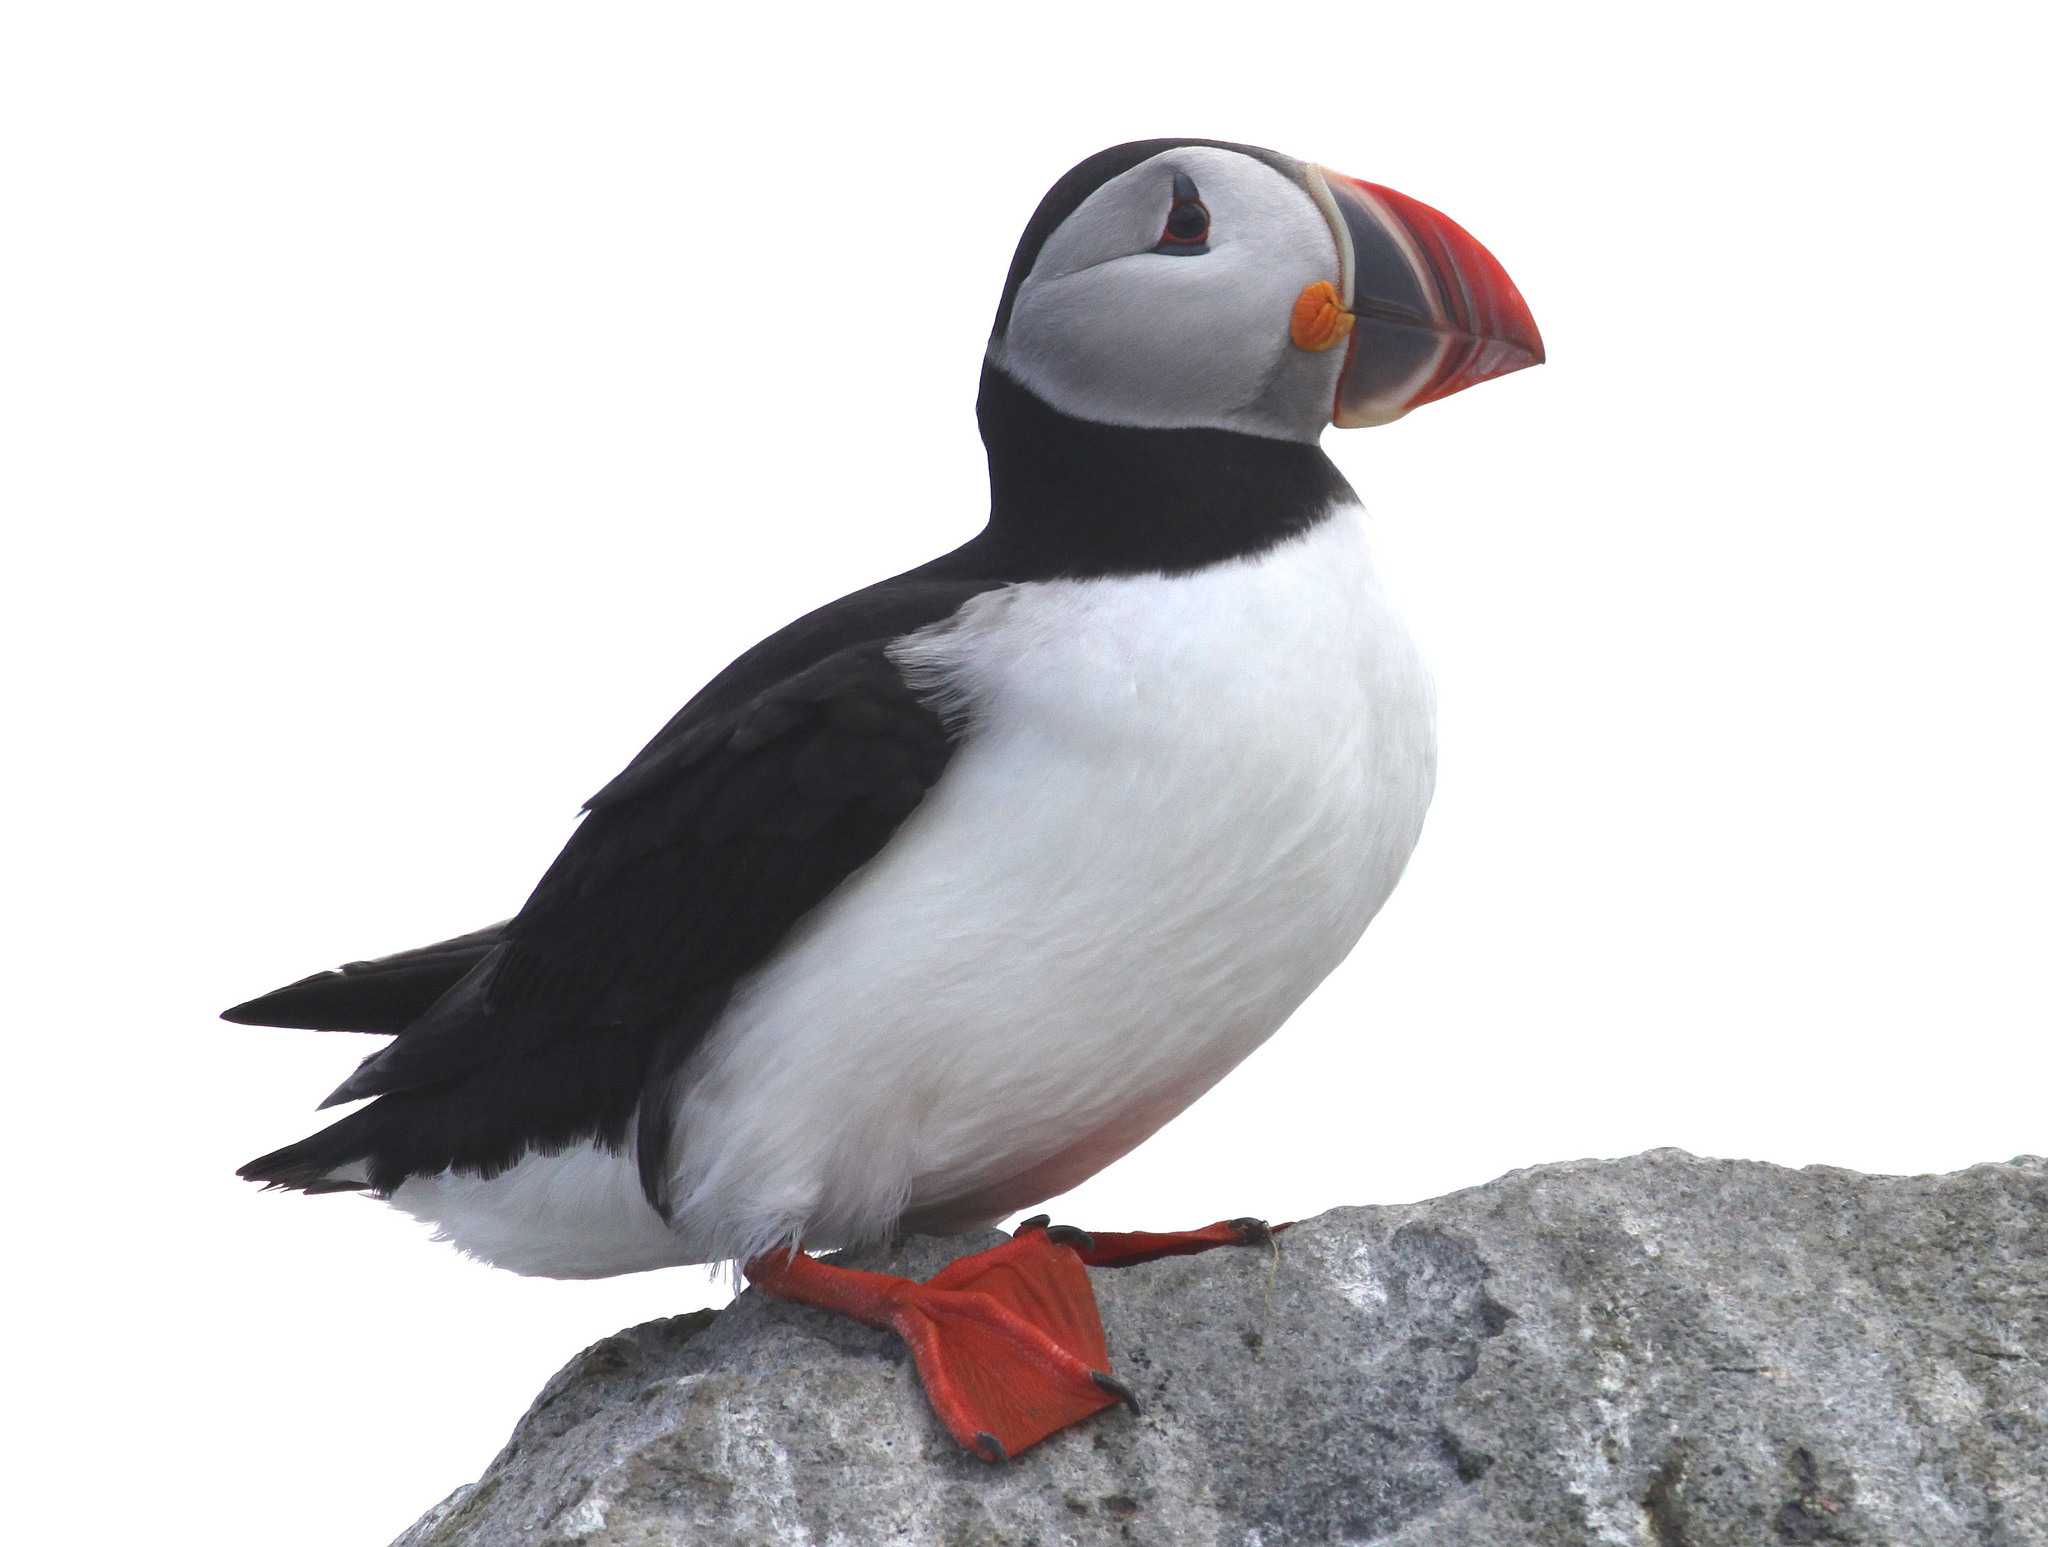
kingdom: Animalia
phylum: Chordata
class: Aves
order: Charadriiformes
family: Alcidae
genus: Fratercula
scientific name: Fratercula arctica
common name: Atlantic puffin
